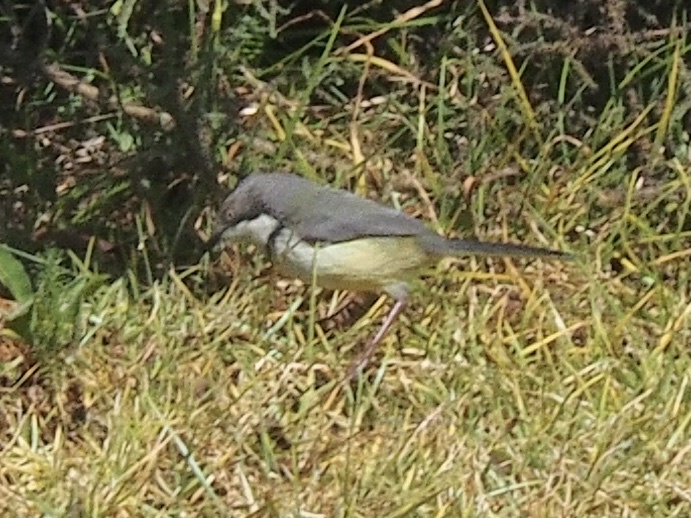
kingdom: Animalia
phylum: Chordata
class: Aves
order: Passeriformes
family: Cisticolidae
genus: Apalis
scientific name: Apalis thoracica
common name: Bar-throated apalis
